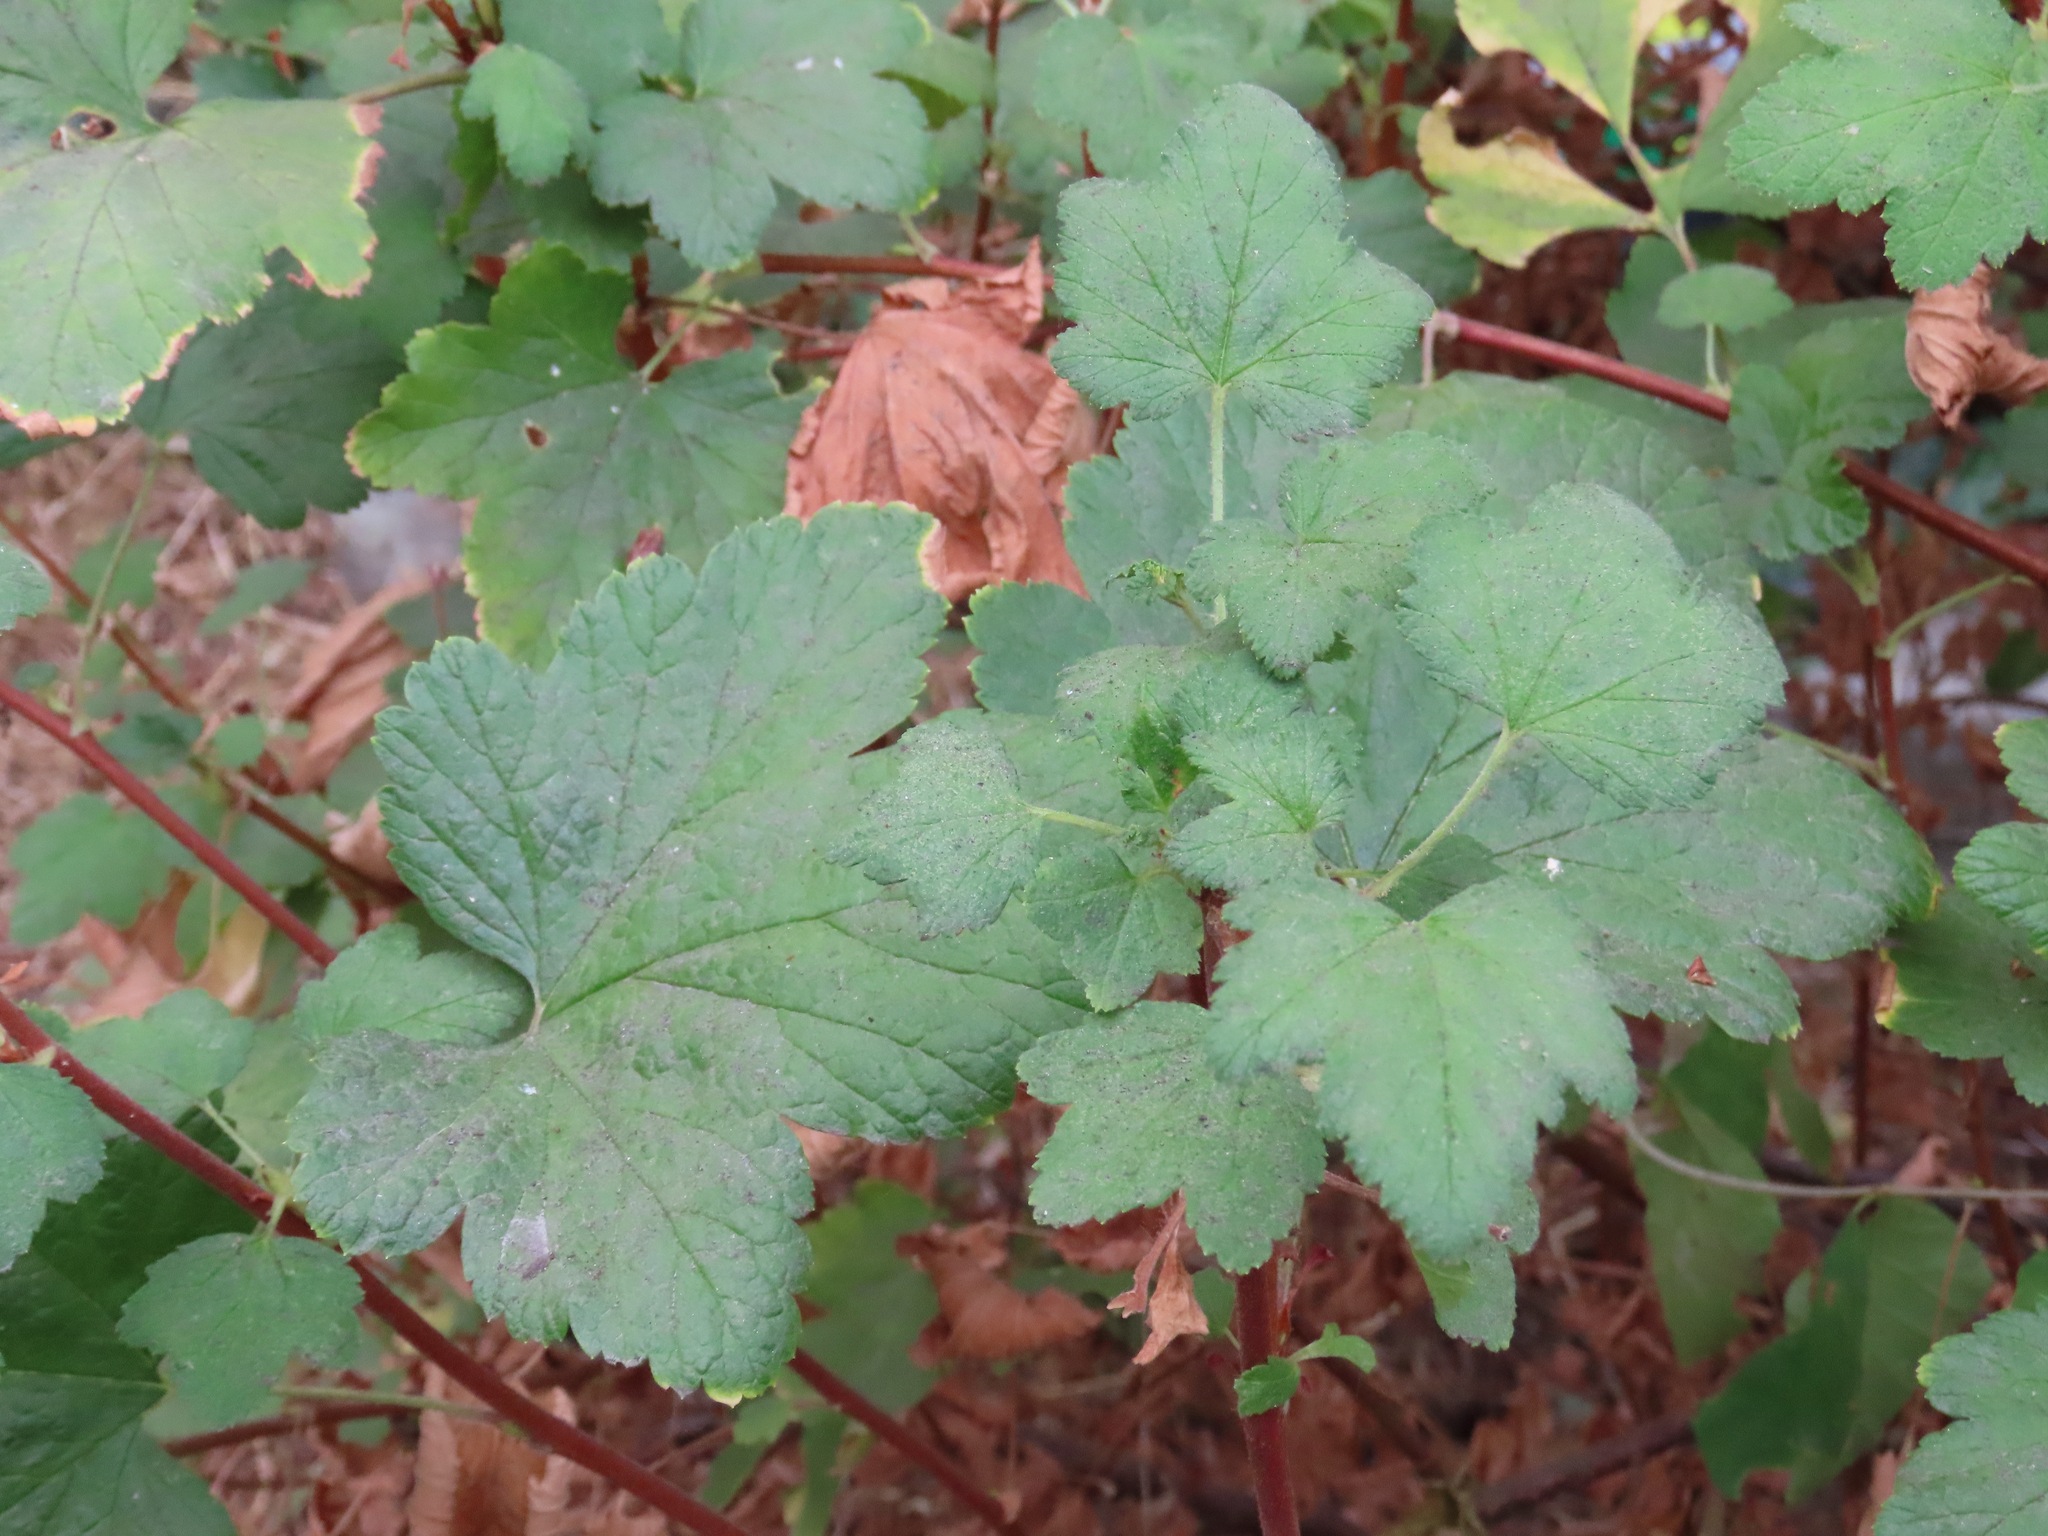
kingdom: Plantae
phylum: Tracheophyta
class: Magnoliopsida
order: Saxifragales
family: Grossulariaceae
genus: Ribes
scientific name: Ribes sanguineum
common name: Flowering currant
